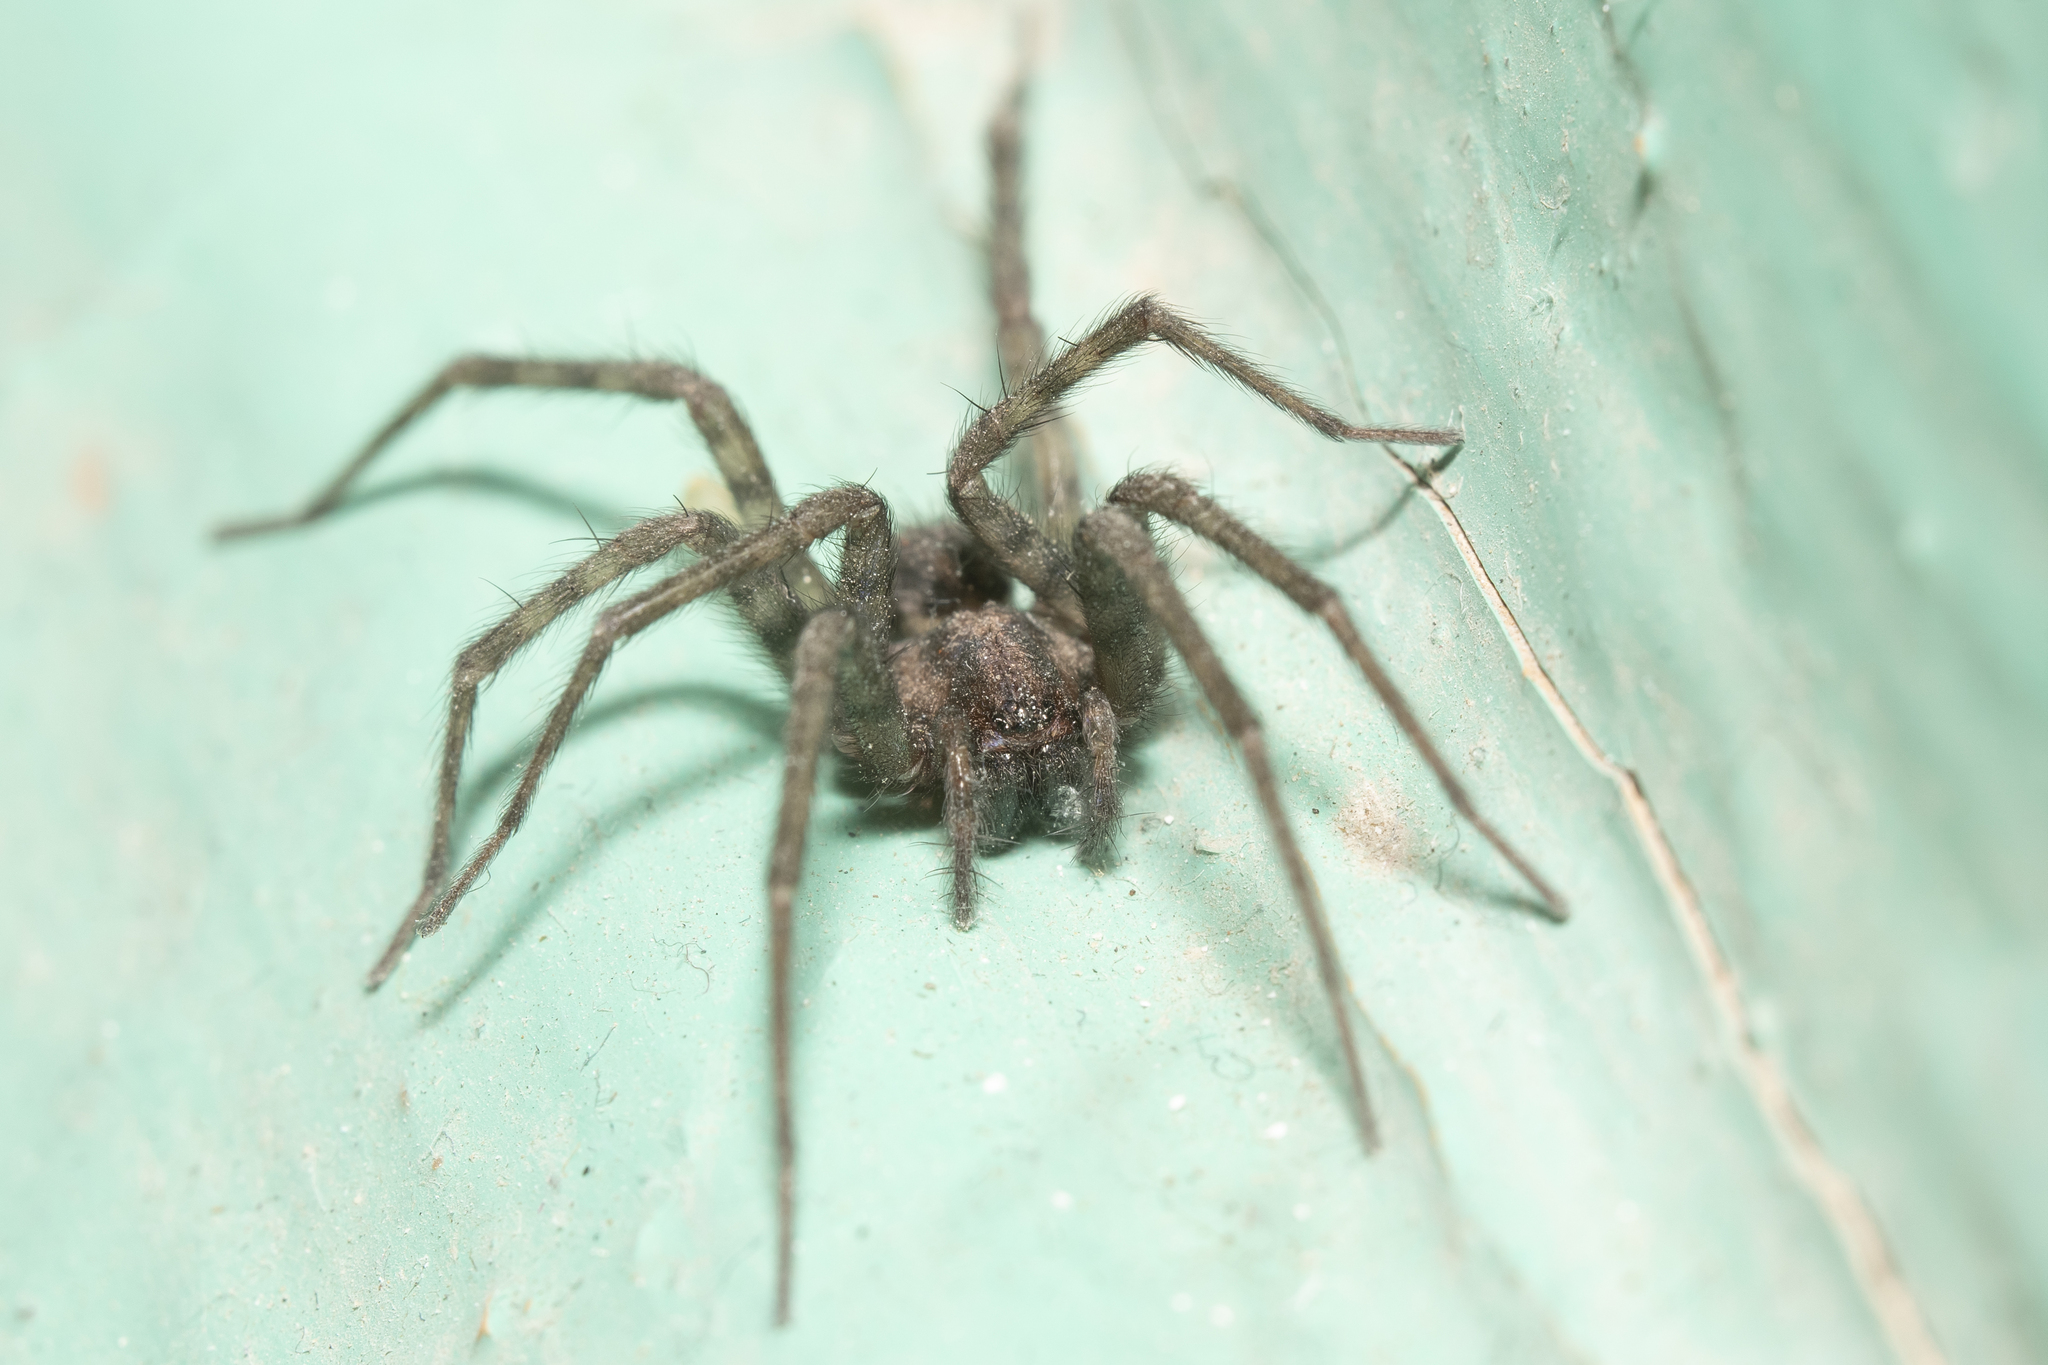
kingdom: Animalia
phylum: Arthropoda
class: Arachnida
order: Araneae
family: Agelenidae
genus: Tegenaria
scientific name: Tegenaria domestica
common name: Barn funnel weaver
